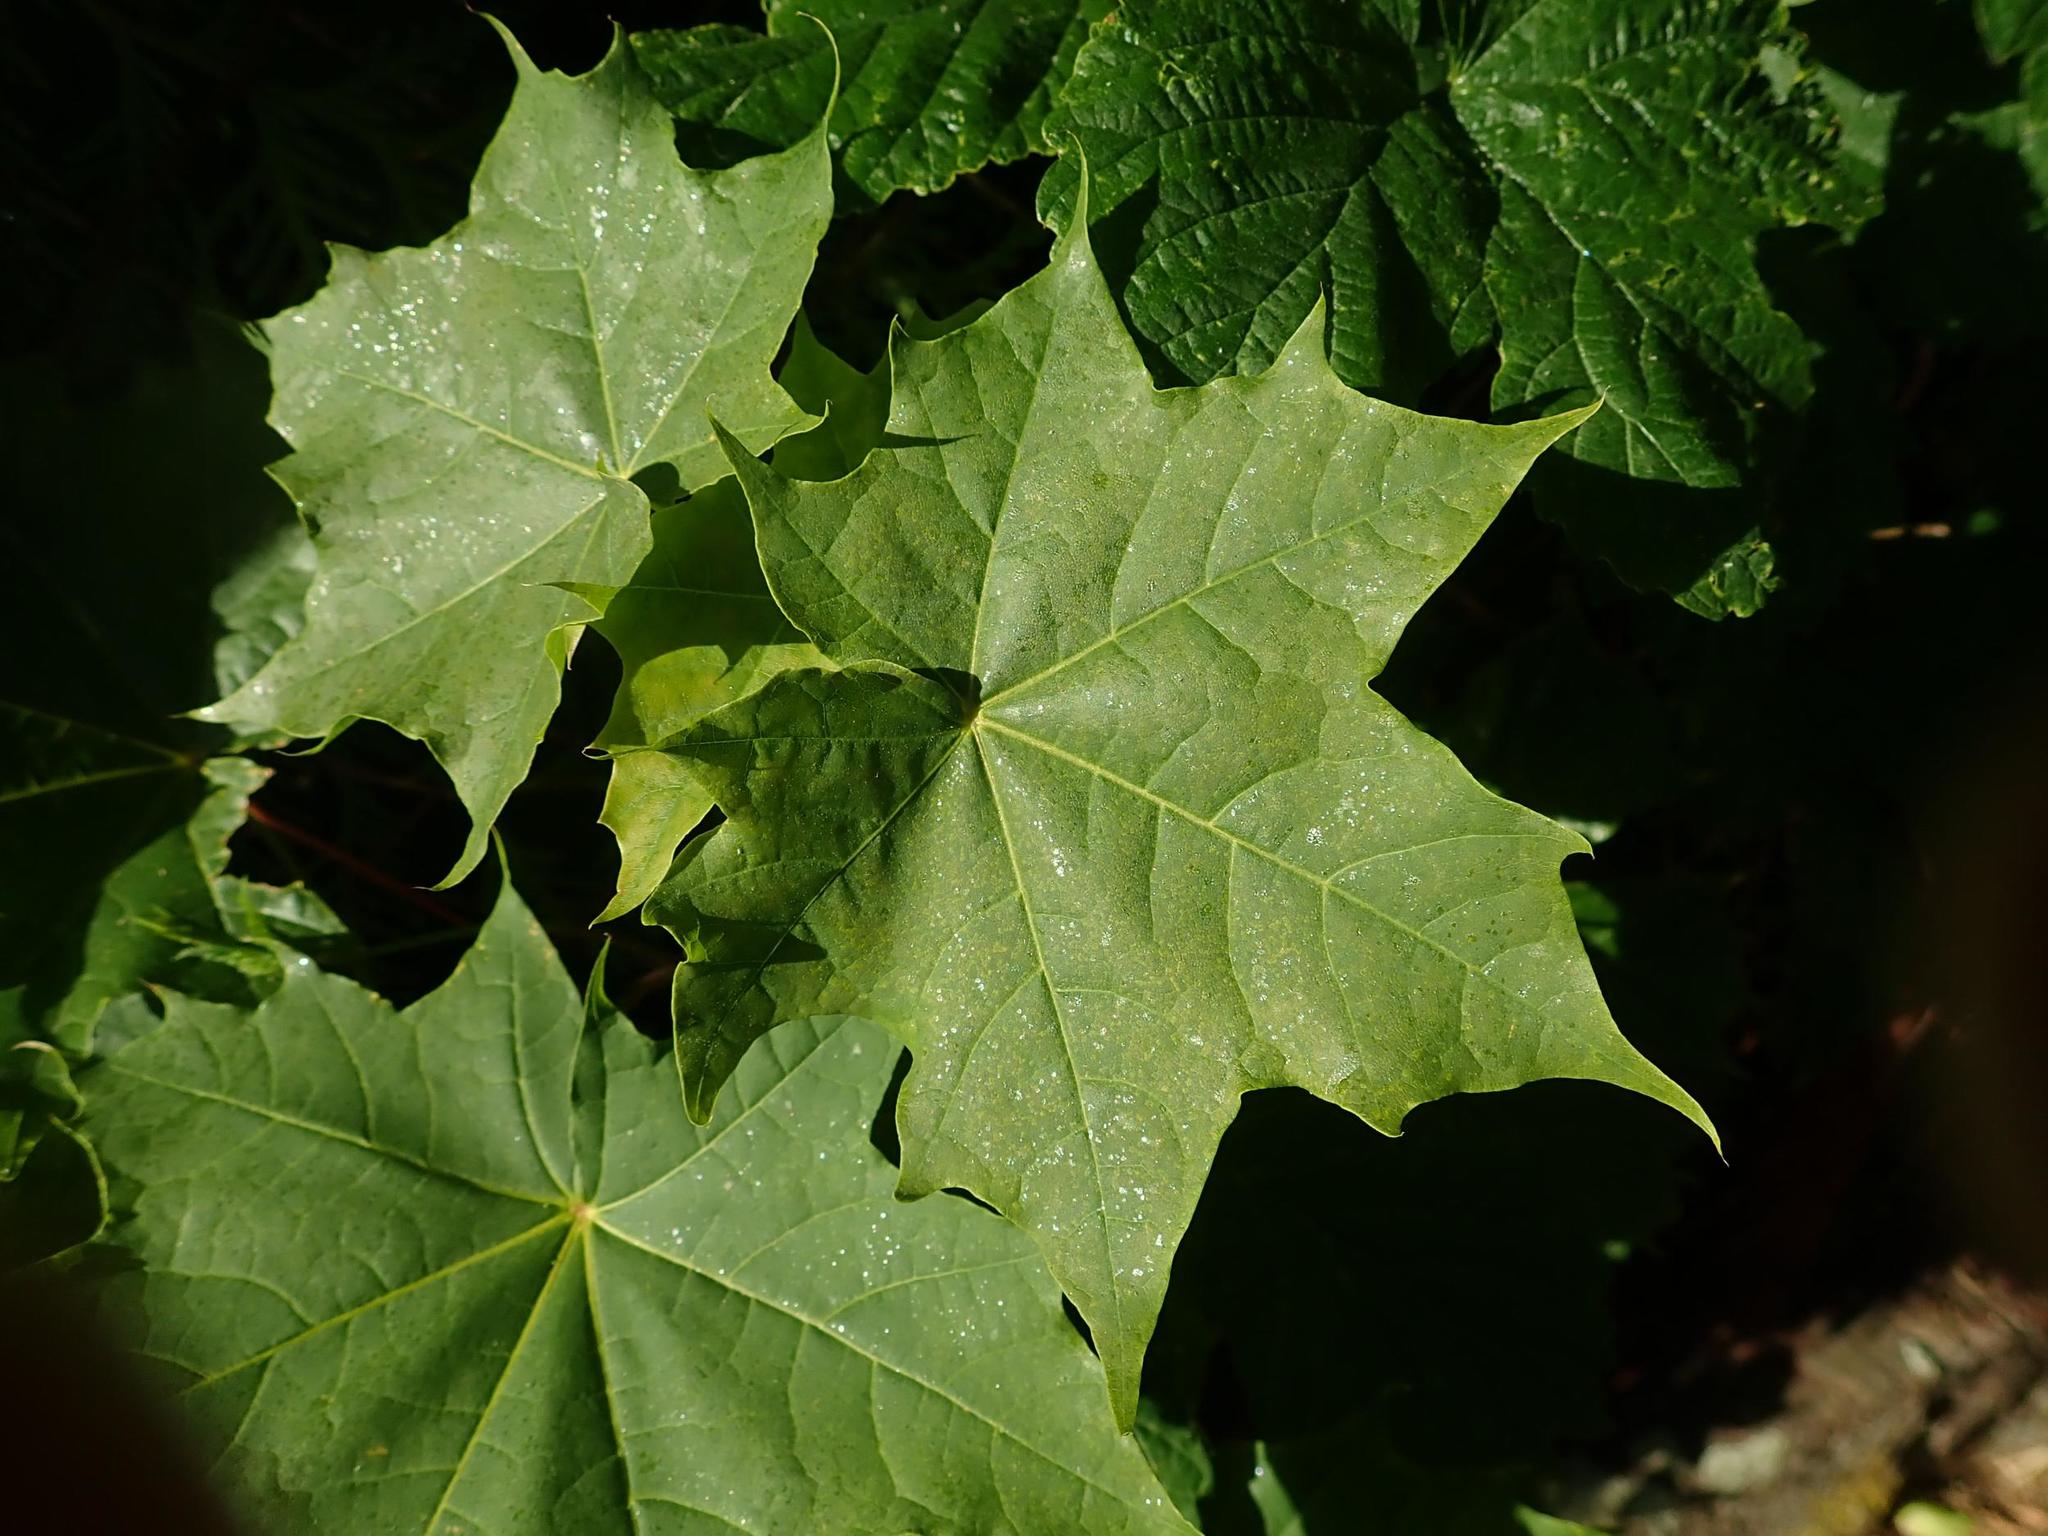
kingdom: Plantae
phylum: Tracheophyta
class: Magnoliopsida
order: Sapindales
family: Sapindaceae
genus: Acer
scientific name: Acer platanoides
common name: Norway maple
